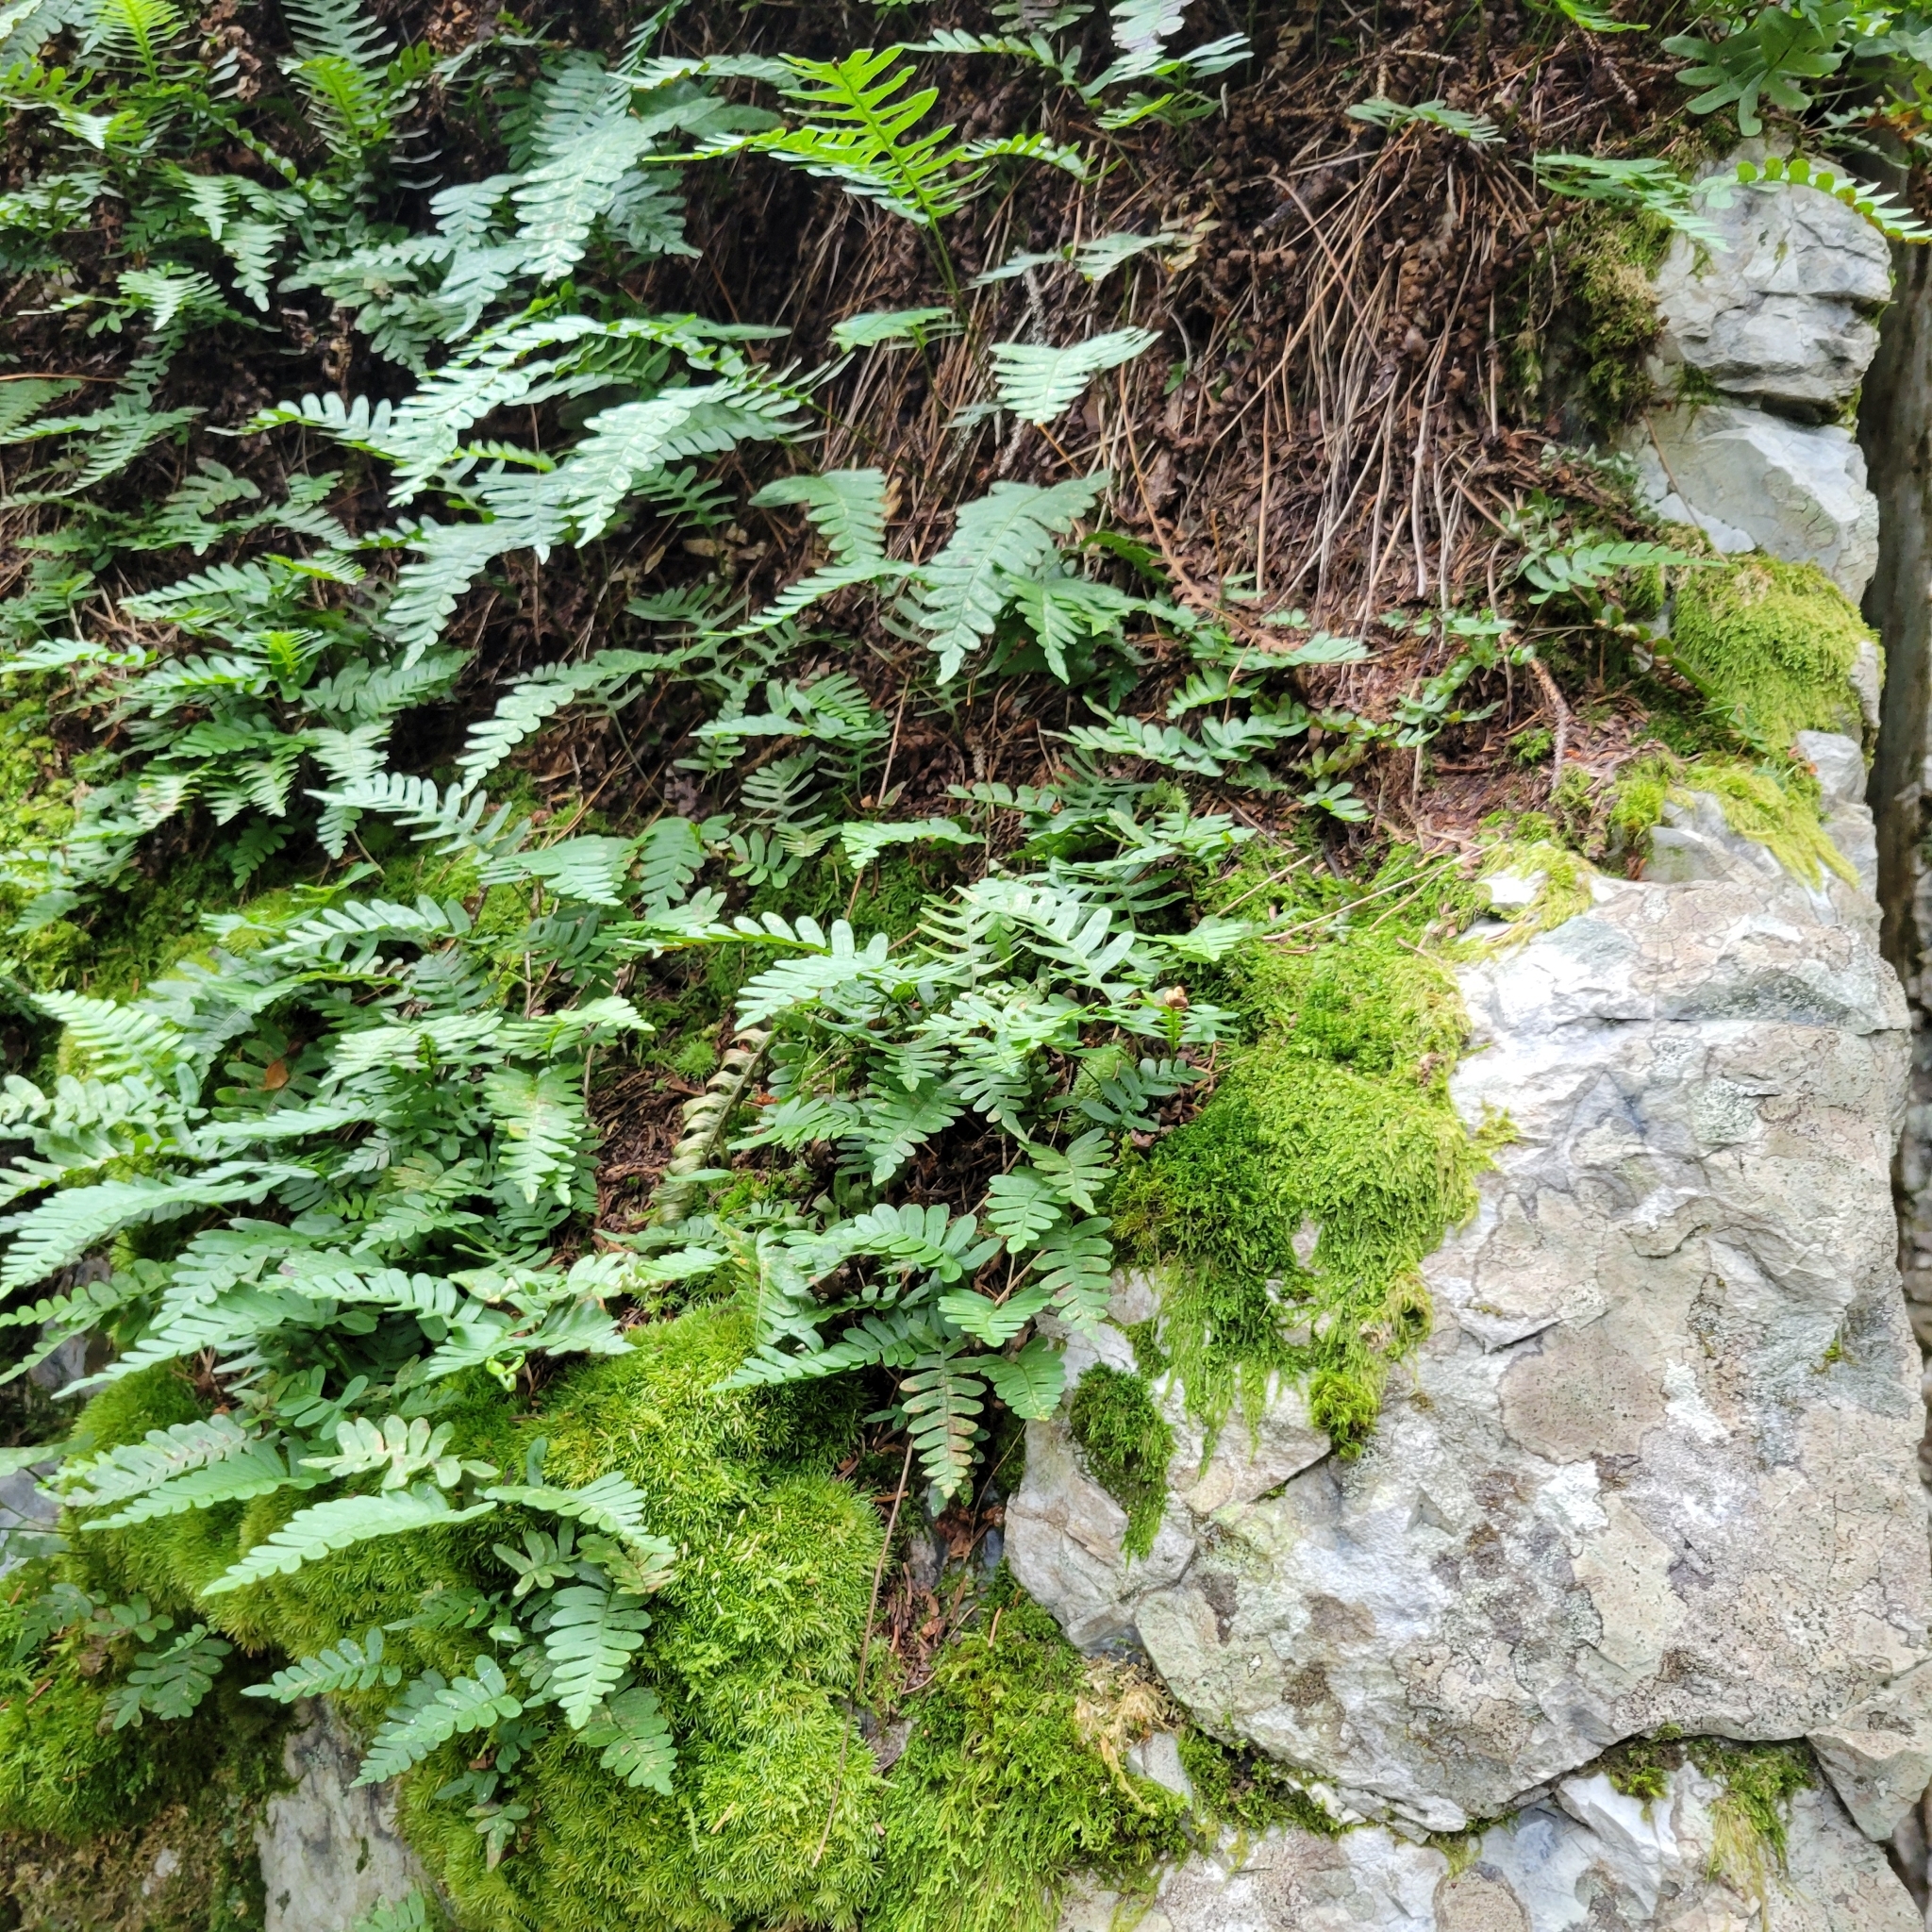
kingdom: Plantae
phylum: Tracheophyta
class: Polypodiopsida
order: Polypodiales
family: Polypodiaceae
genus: Polypodium
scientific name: Polypodium virginianum
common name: American wall fern
